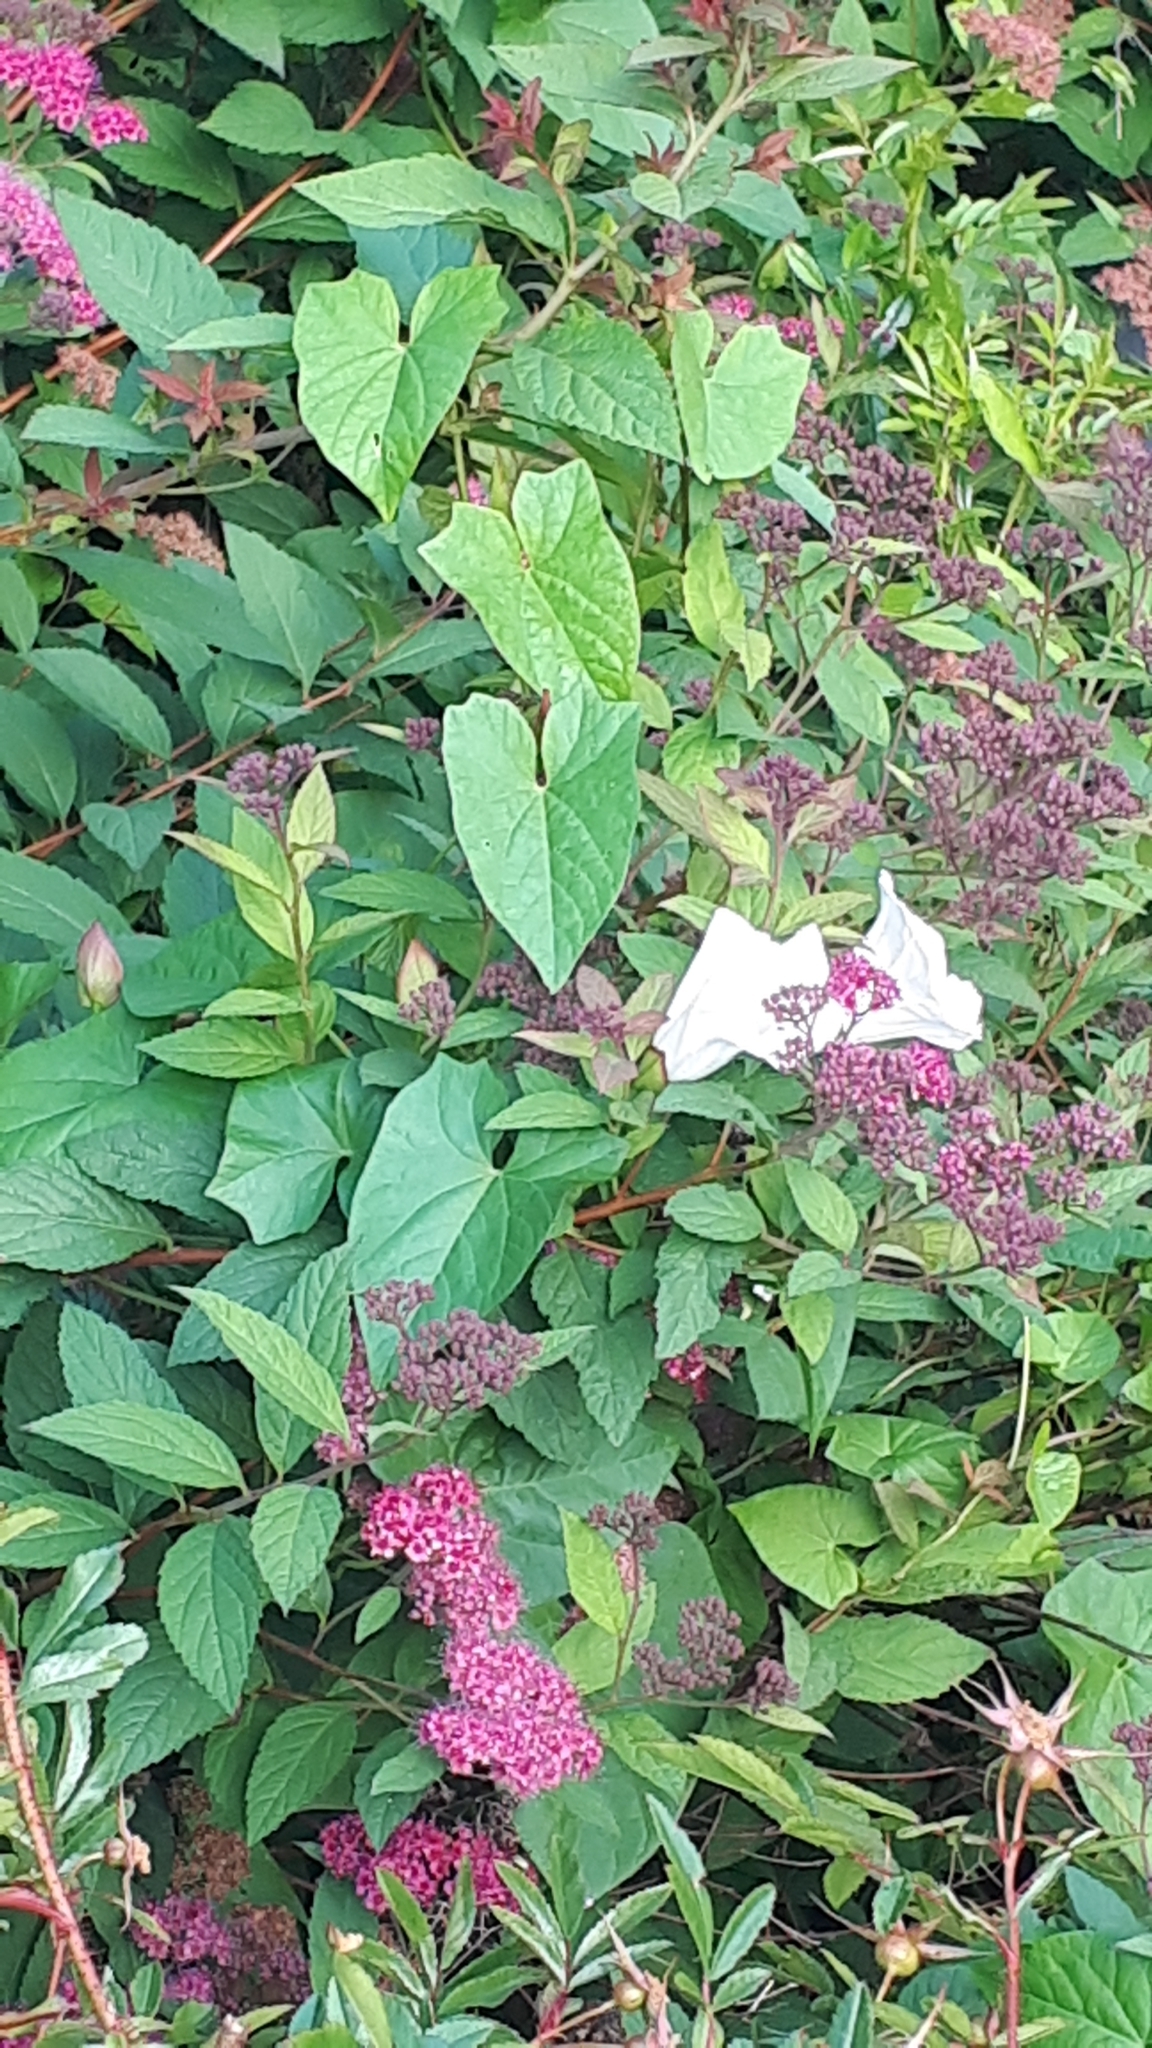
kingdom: Plantae
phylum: Tracheophyta
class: Magnoliopsida
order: Solanales
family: Convolvulaceae
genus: Calystegia
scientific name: Calystegia sepium
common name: Hedge bindweed
